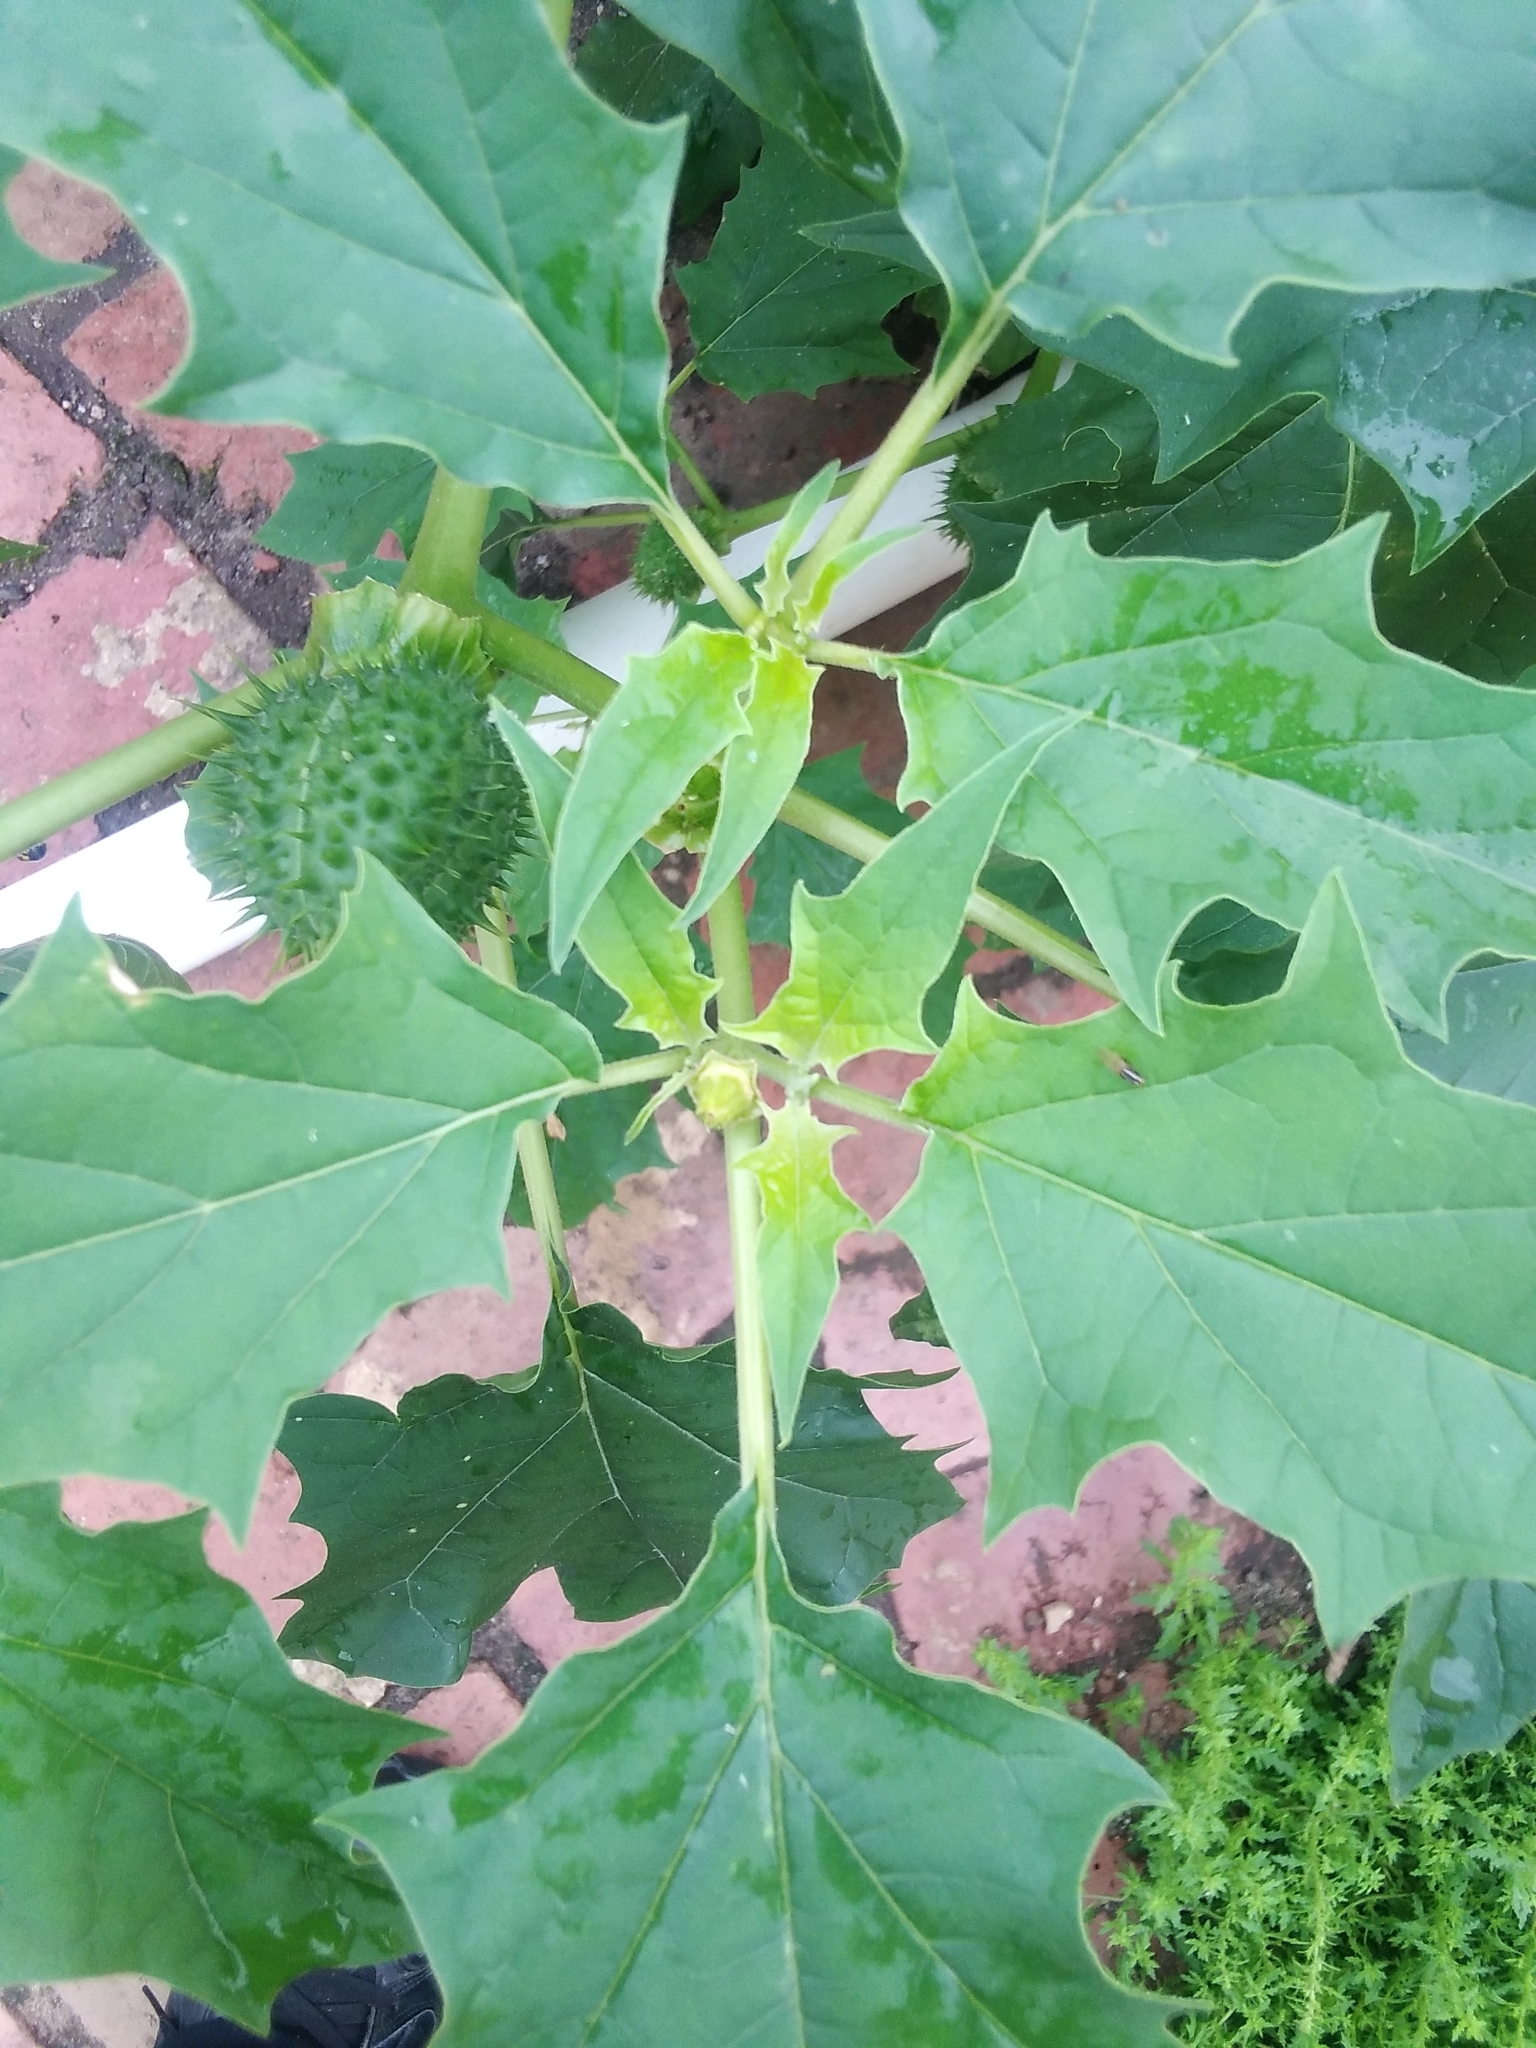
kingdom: Plantae
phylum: Tracheophyta
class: Magnoliopsida
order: Solanales
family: Solanaceae
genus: Datura
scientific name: Datura stramonium
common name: Thorn-apple
